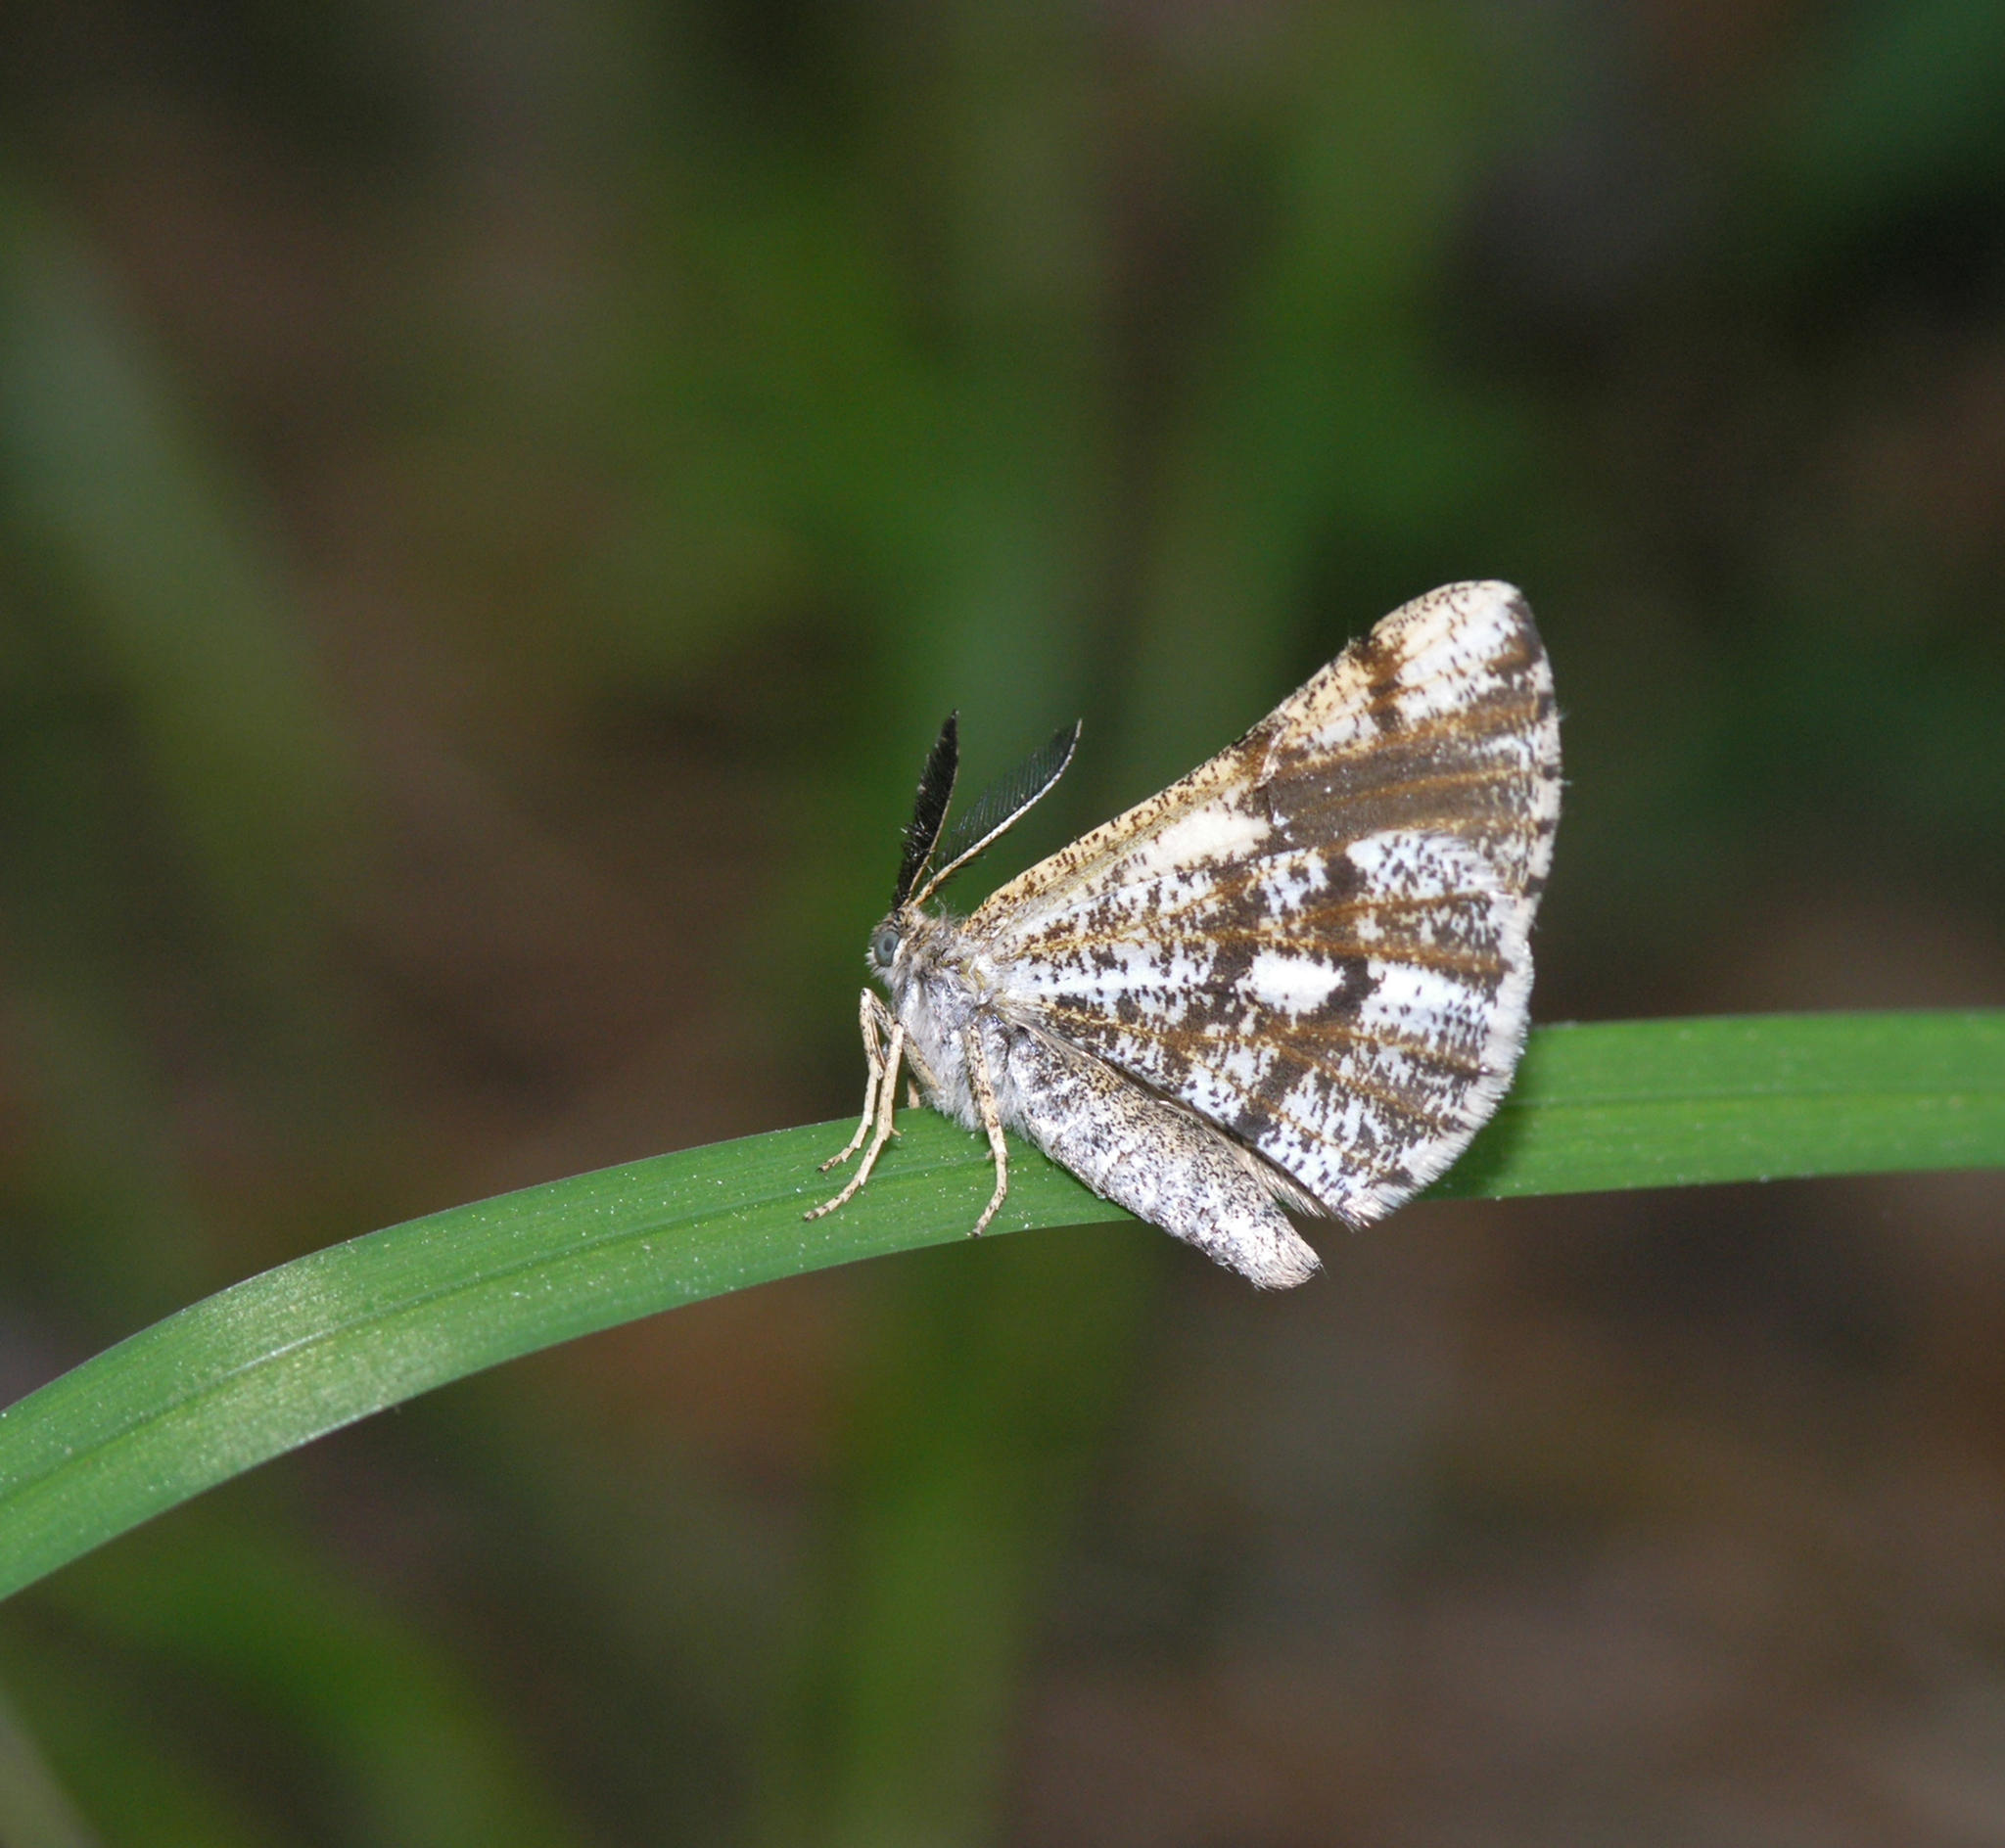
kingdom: Animalia
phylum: Arthropoda
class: Insecta
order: Lepidoptera
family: Geometridae
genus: Bupalus
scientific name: Bupalus piniaria
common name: Bordered white
